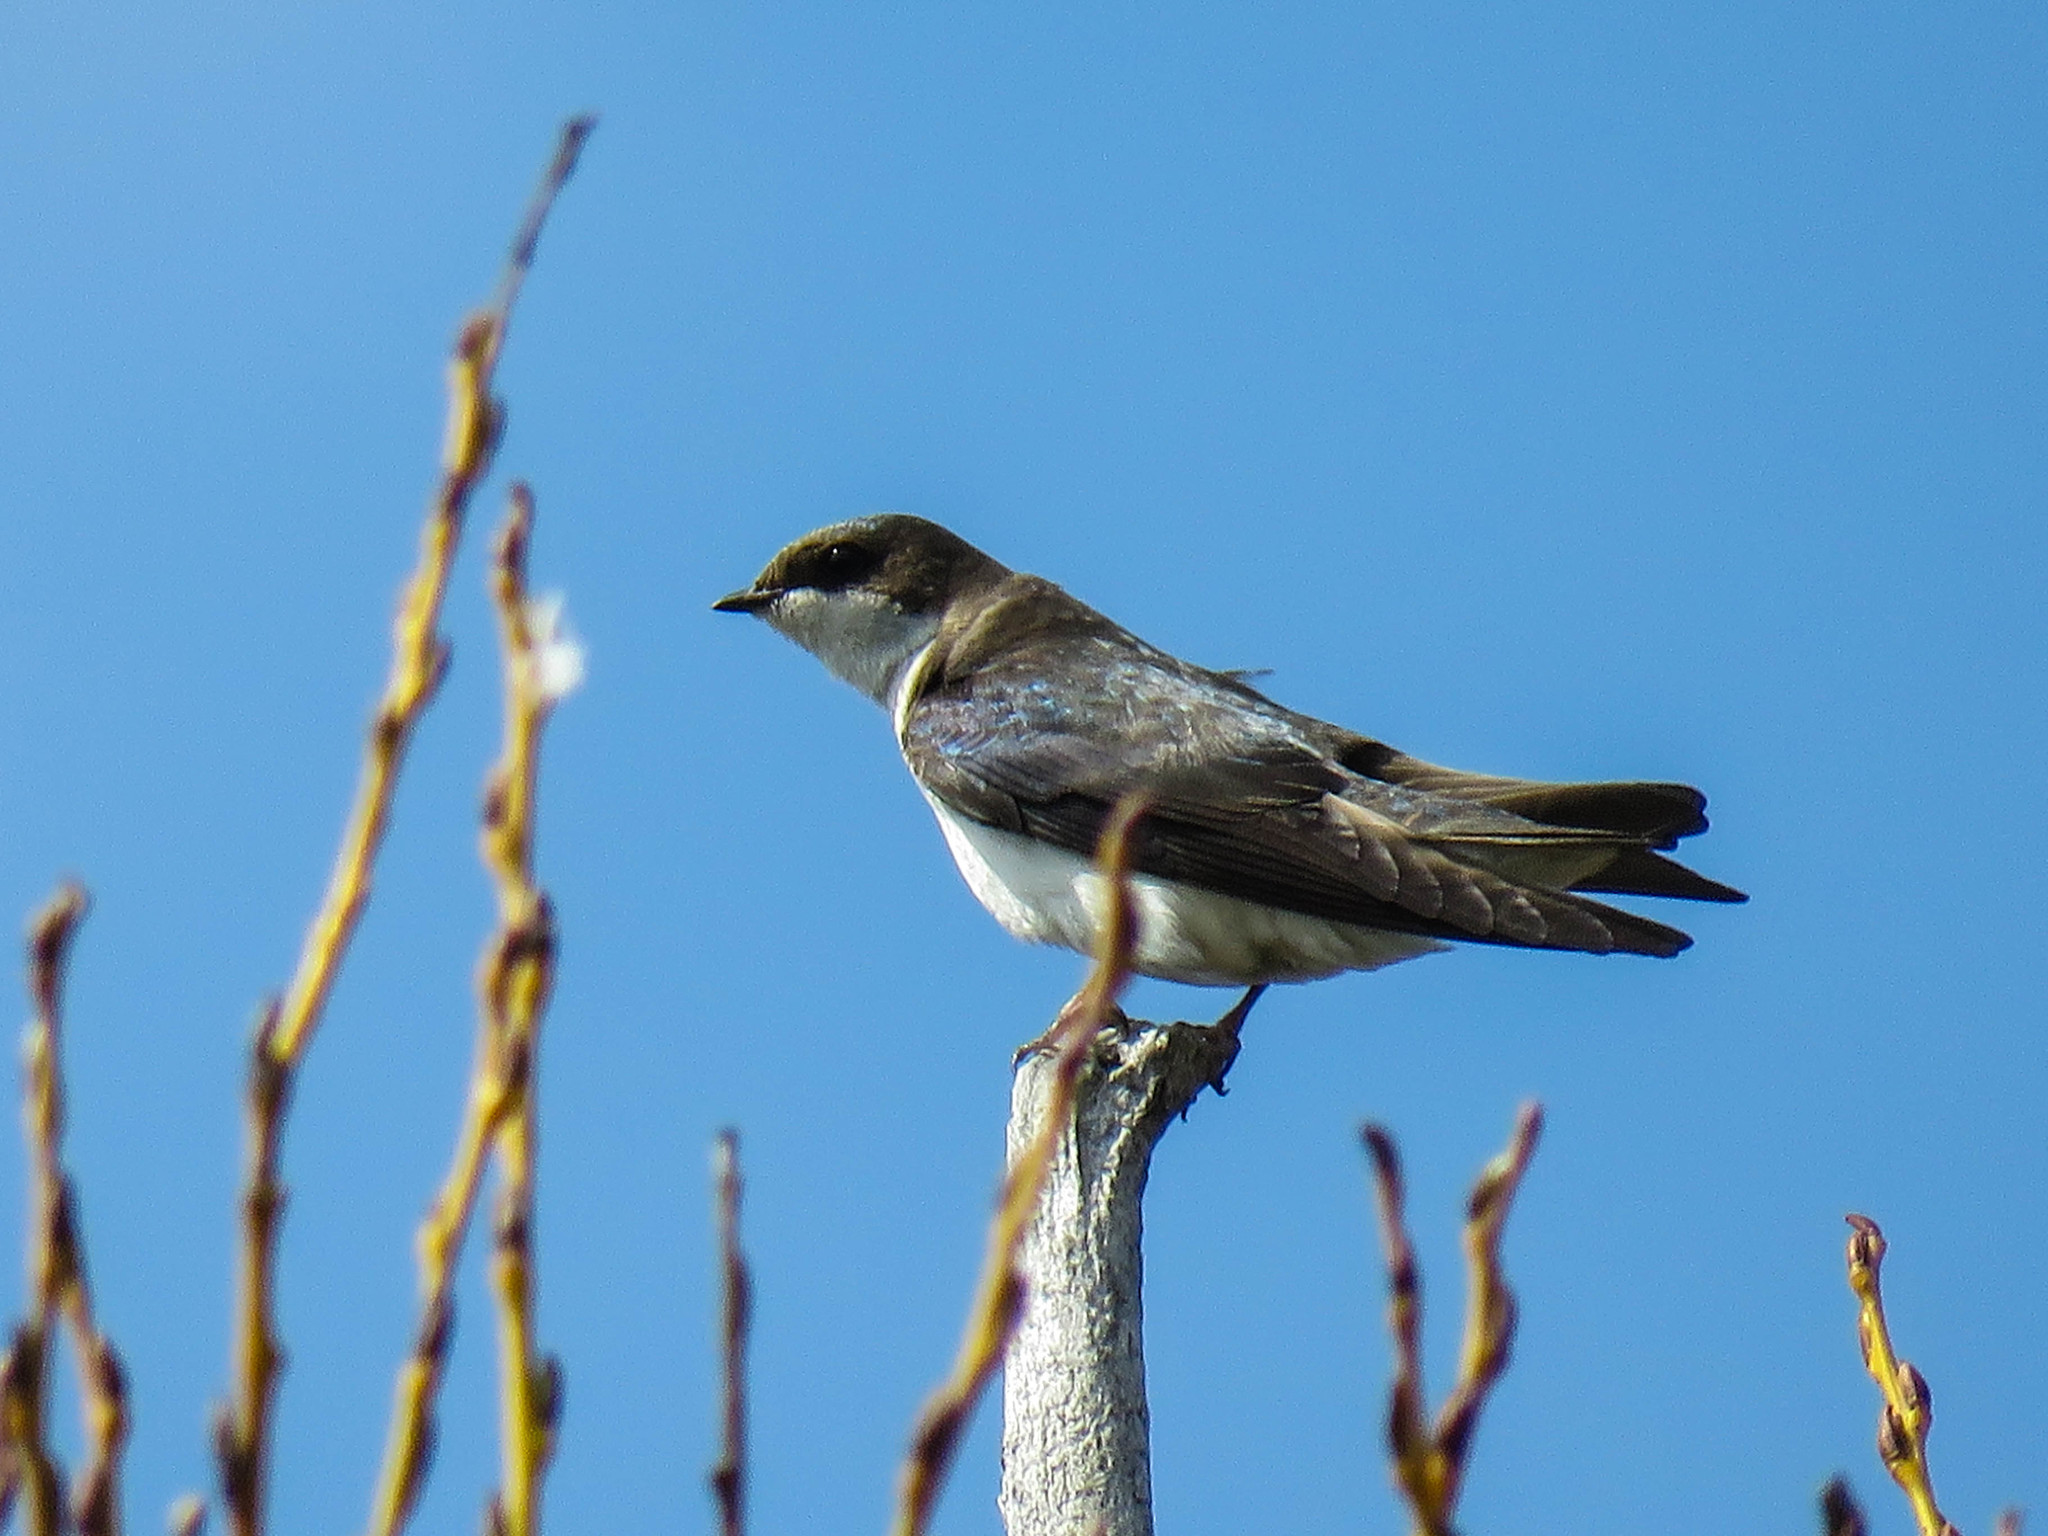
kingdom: Animalia
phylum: Chordata
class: Aves
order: Passeriformes
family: Hirundinidae
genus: Tachycineta
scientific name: Tachycineta bicolor
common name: Tree swallow
